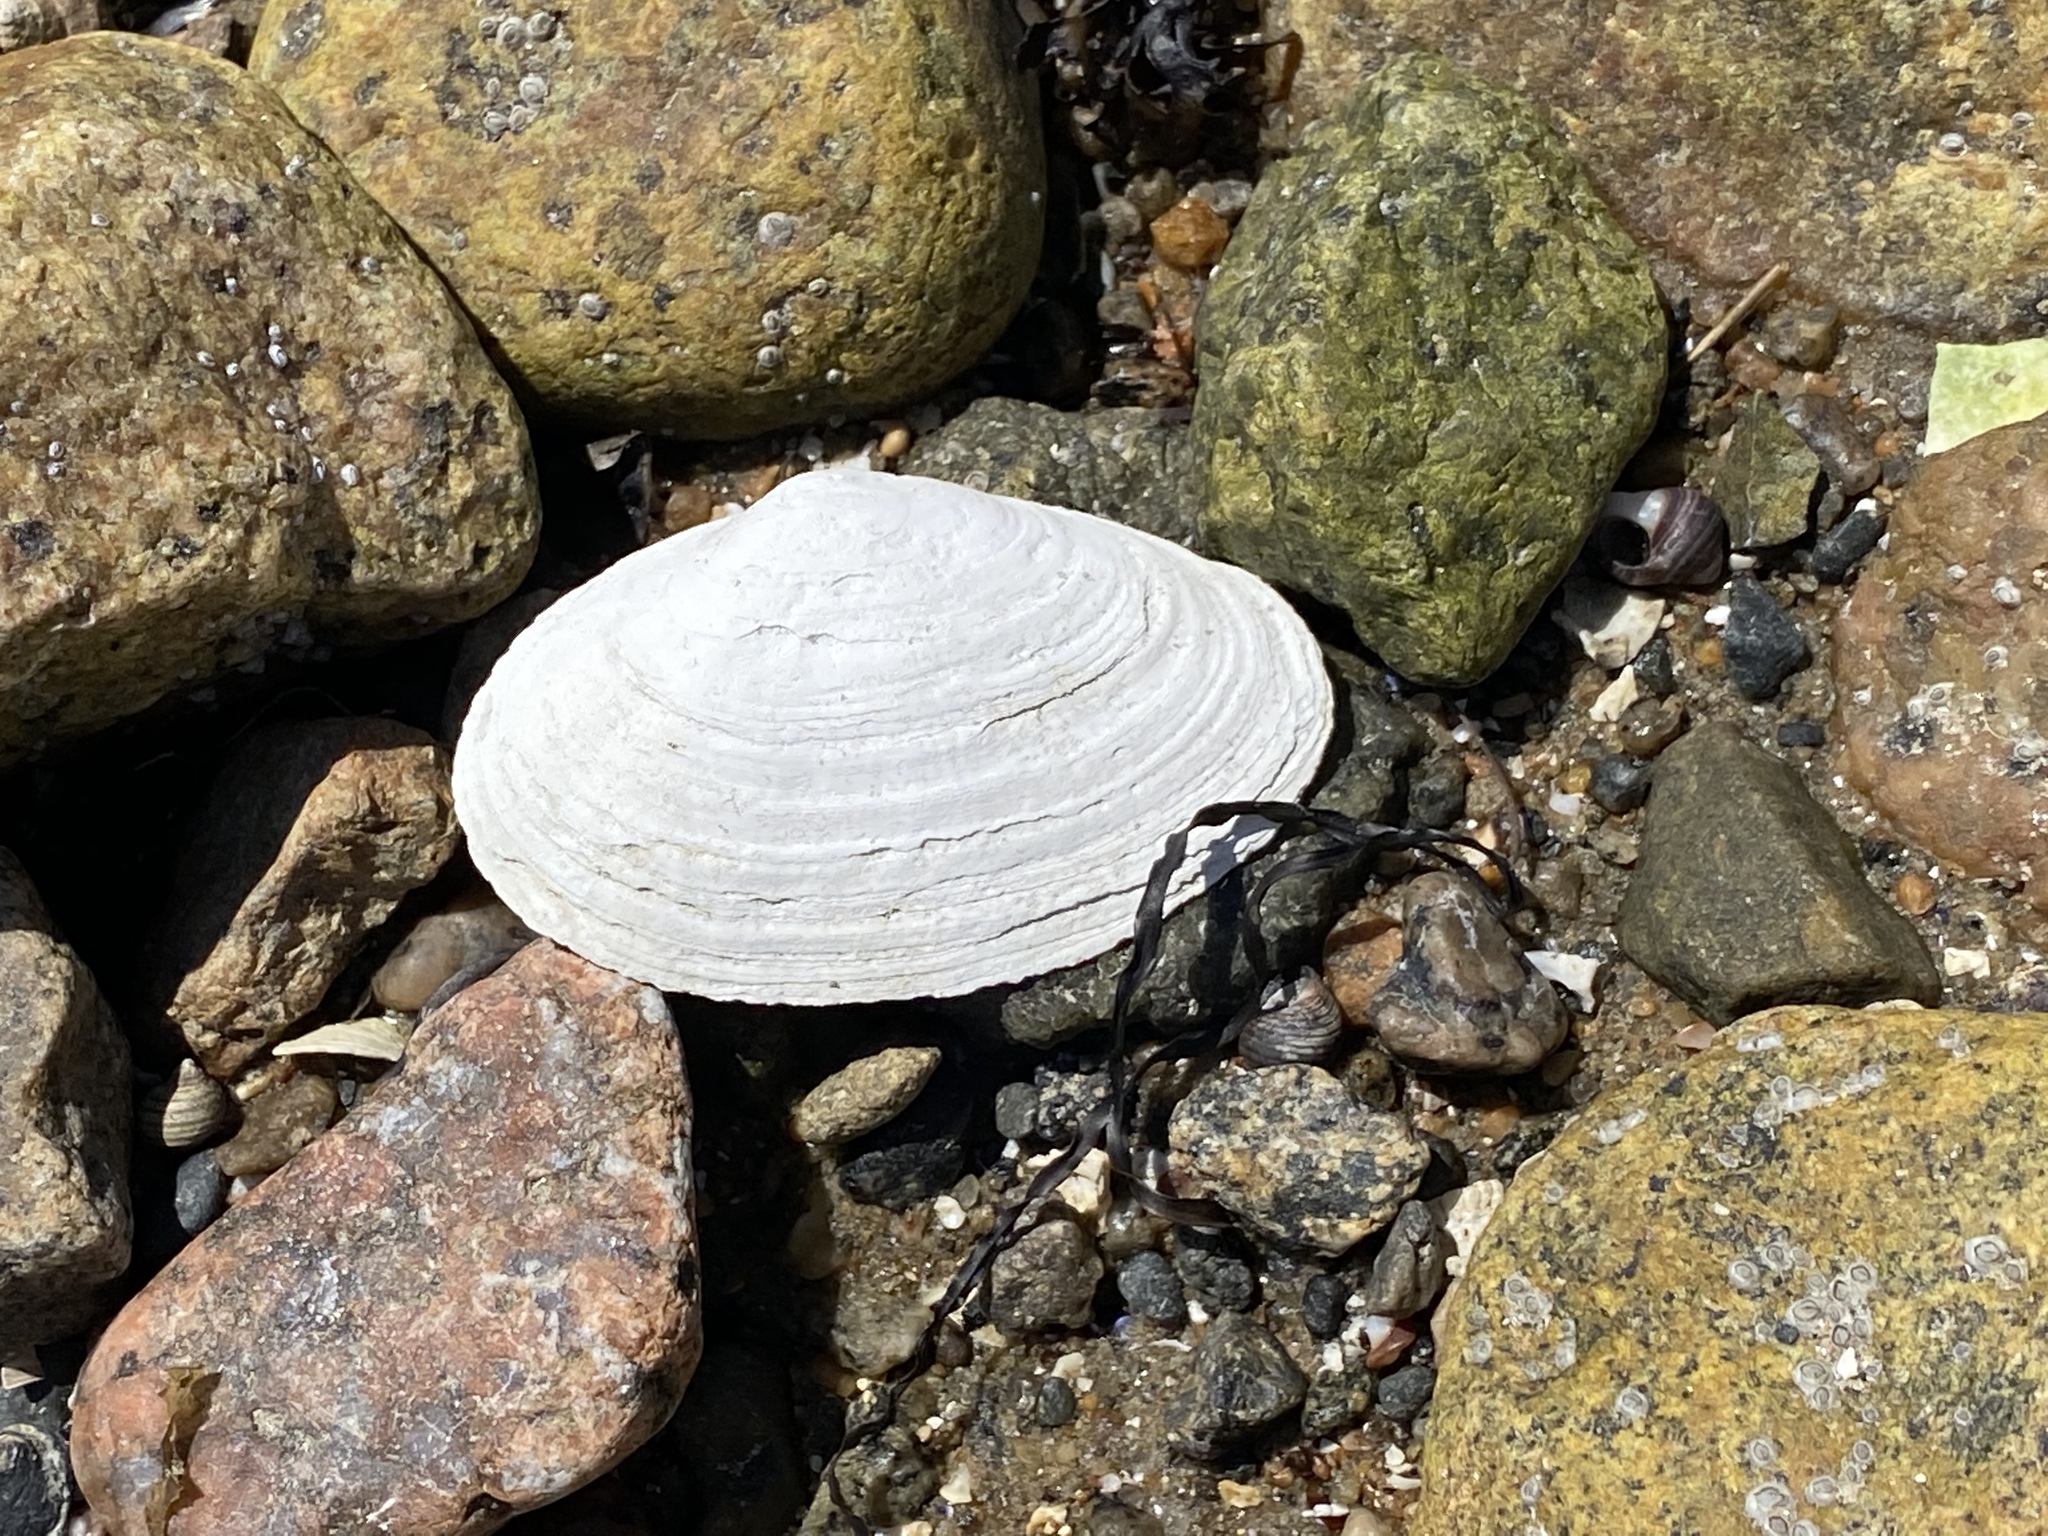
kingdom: Animalia
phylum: Mollusca
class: Bivalvia
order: Myida
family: Myidae
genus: Mya
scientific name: Mya arenaria
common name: Soft-shelled clam
